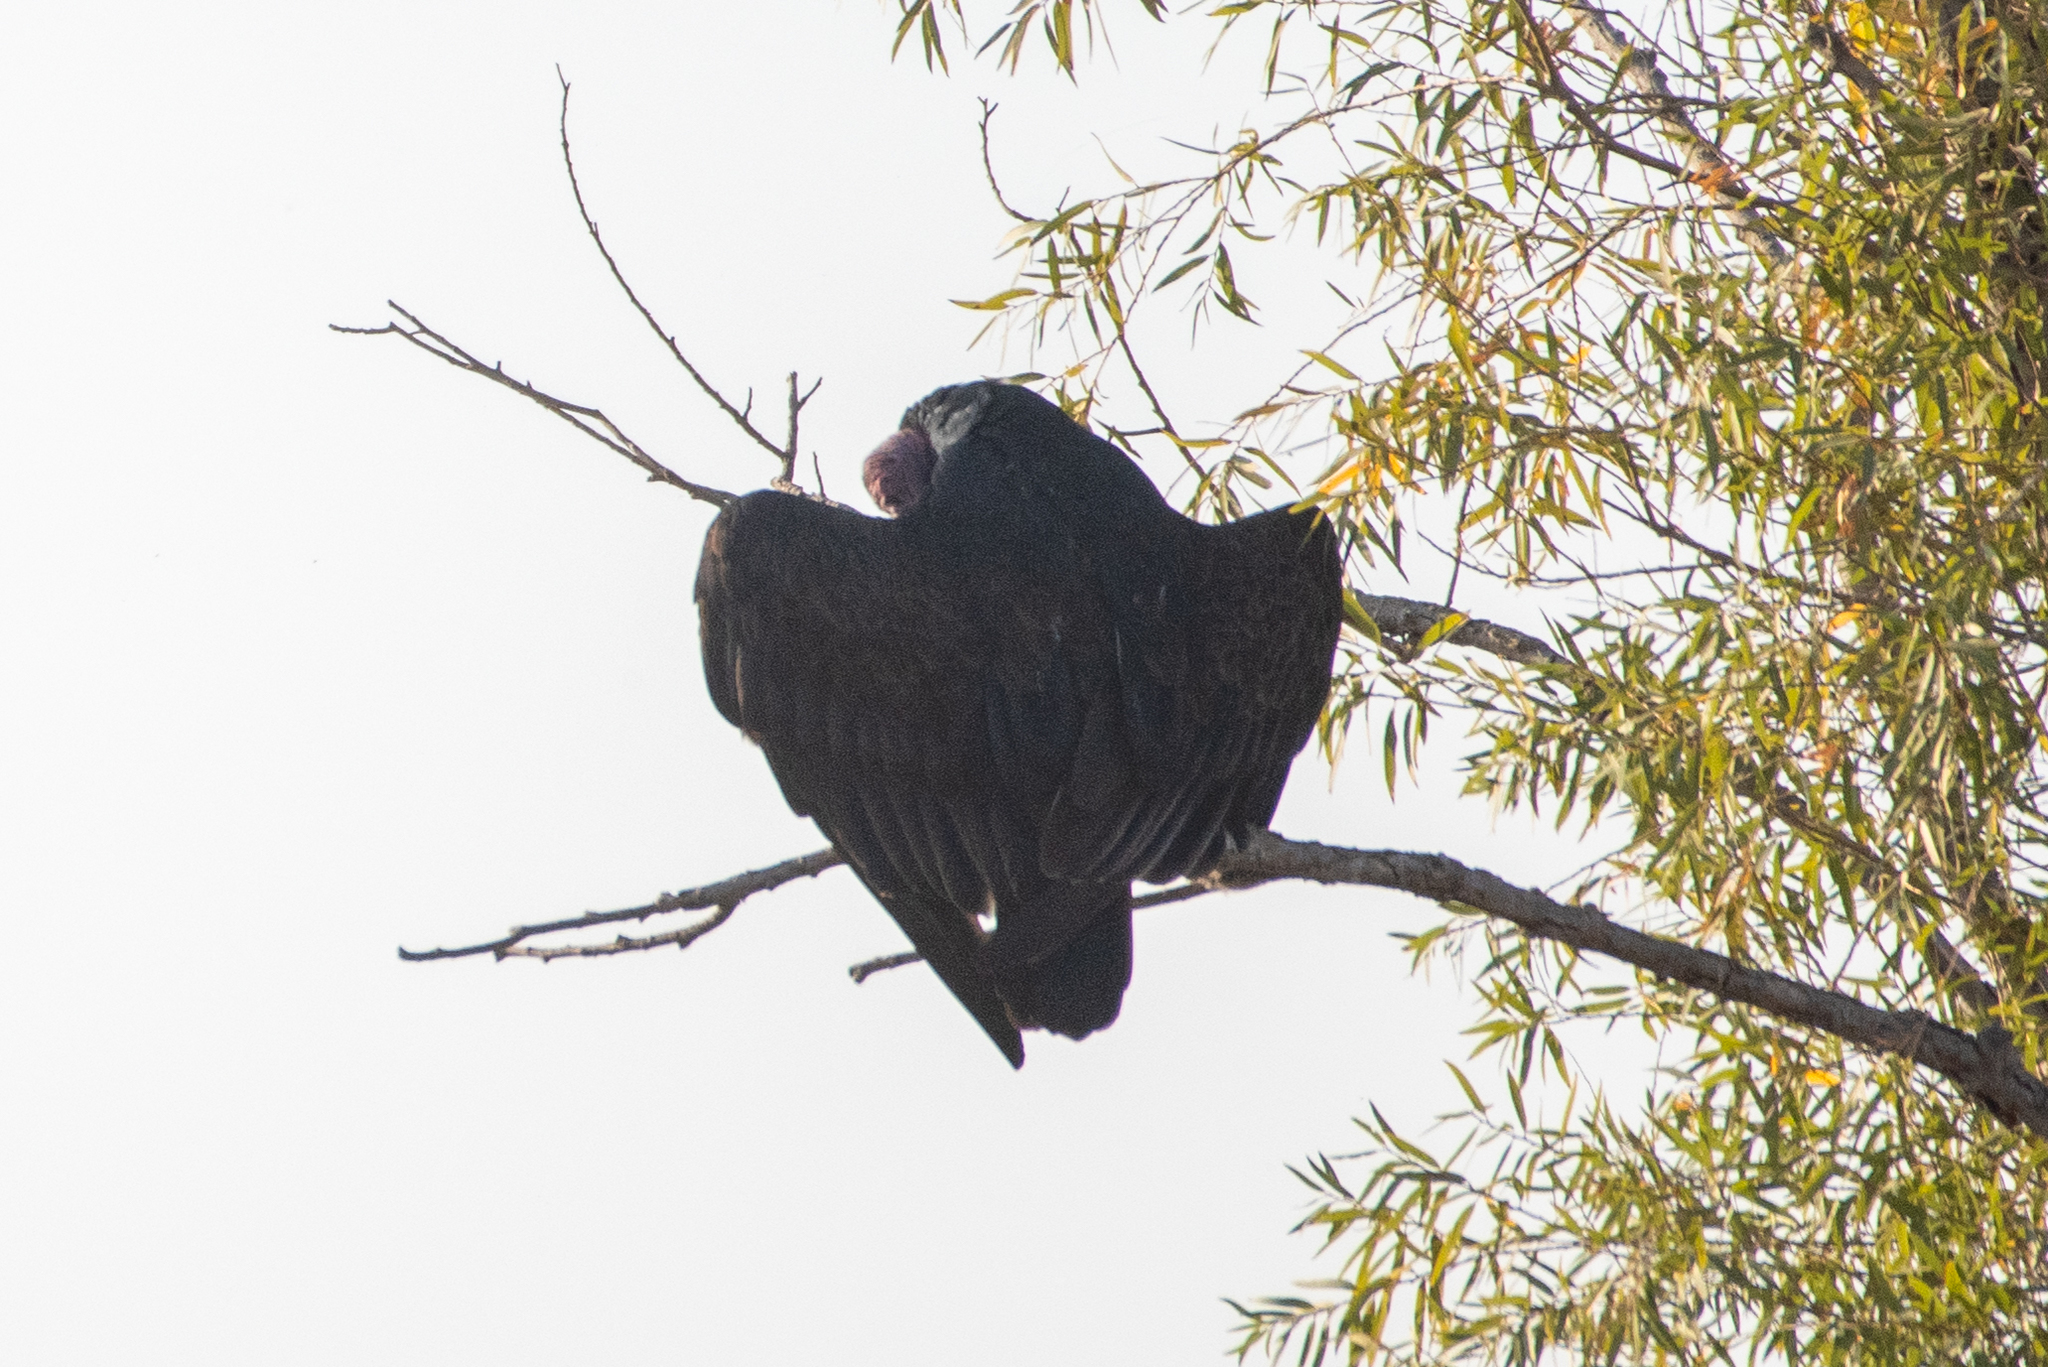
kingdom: Animalia
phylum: Chordata
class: Aves
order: Accipitriformes
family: Cathartidae
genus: Cathartes
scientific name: Cathartes aura
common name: Turkey vulture
